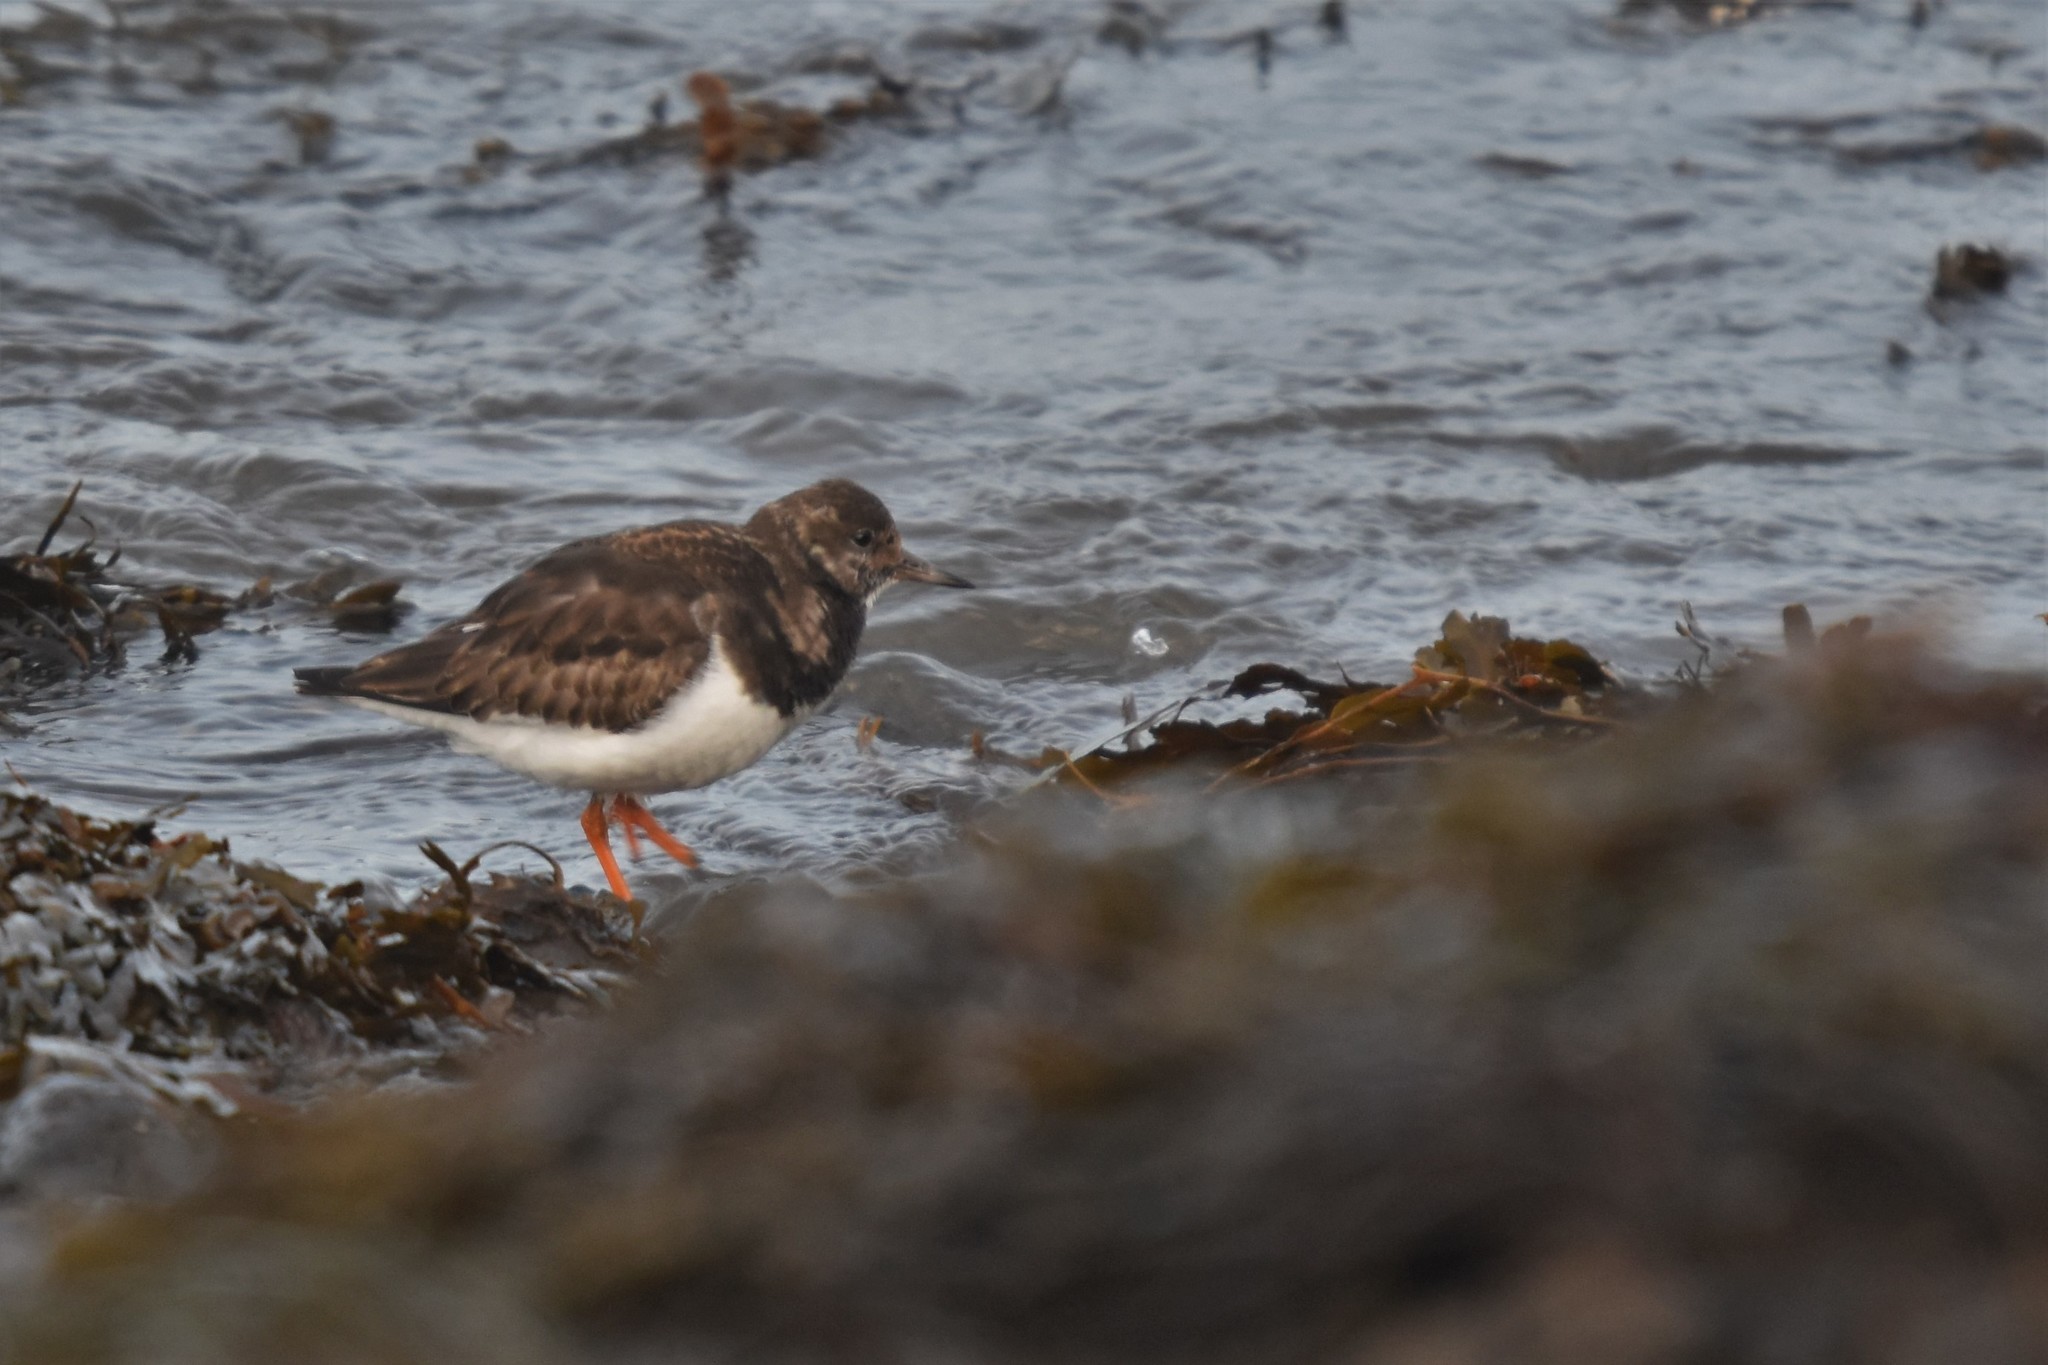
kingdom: Animalia
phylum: Chordata
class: Aves
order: Charadriiformes
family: Scolopacidae
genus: Arenaria
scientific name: Arenaria interpres
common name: Ruddy turnstone
